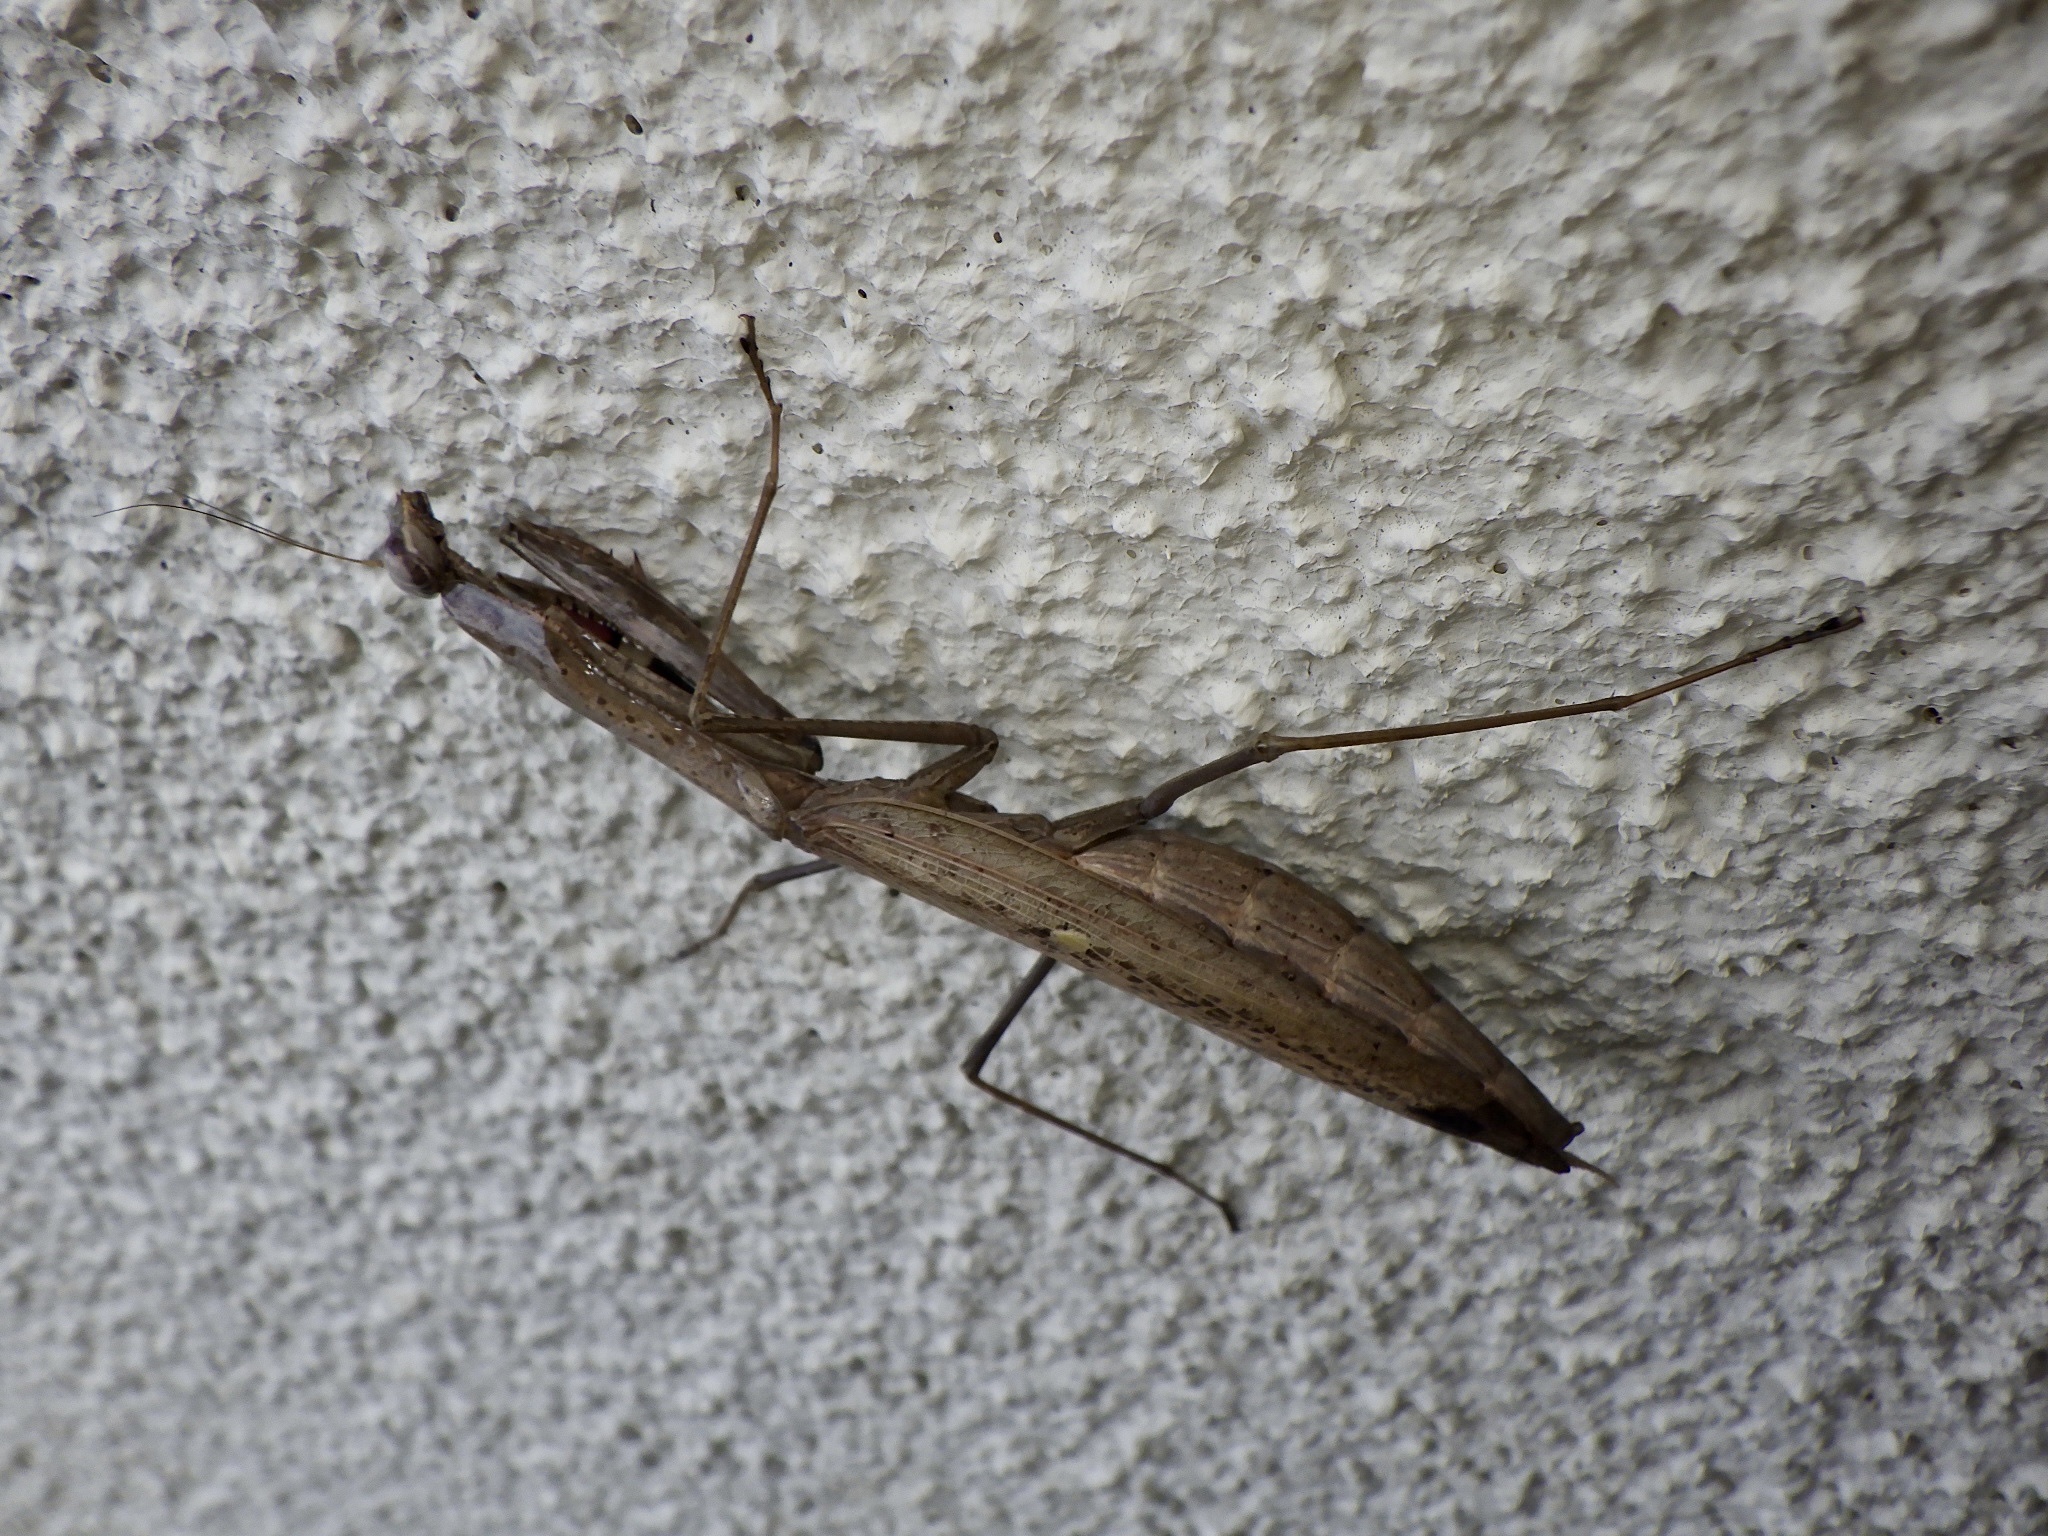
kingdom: Animalia
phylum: Arthropoda
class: Insecta
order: Mantodea
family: Mantidae
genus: Statilia
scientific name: Statilia maculata
